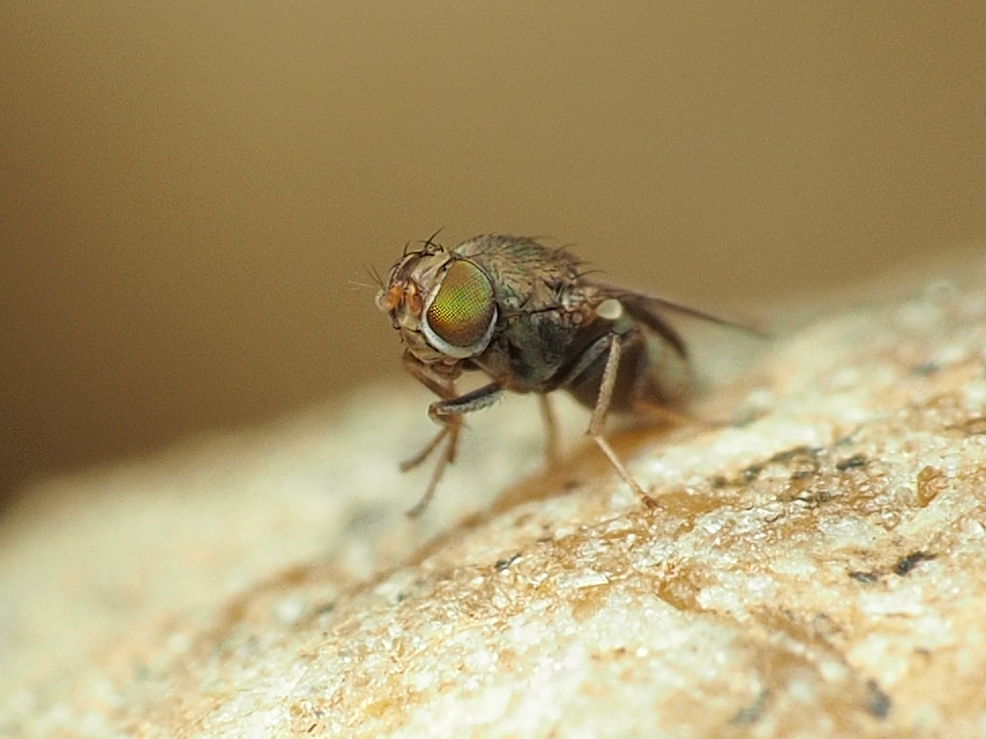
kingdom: Animalia
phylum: Arthropoda
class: Insecta
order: Diptera
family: Ephydridae
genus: Aquachasma
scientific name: Aquachasma leucoproctum
